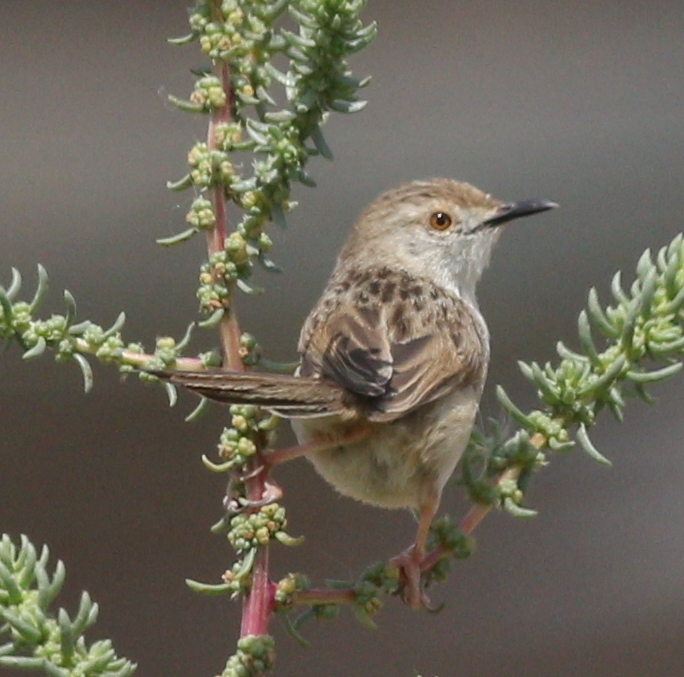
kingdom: Animalia
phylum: Chordata
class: Aves
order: Passeriformes
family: Cisticolidae
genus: Prinia
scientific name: Prinia gracilis
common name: Graceful prinia
